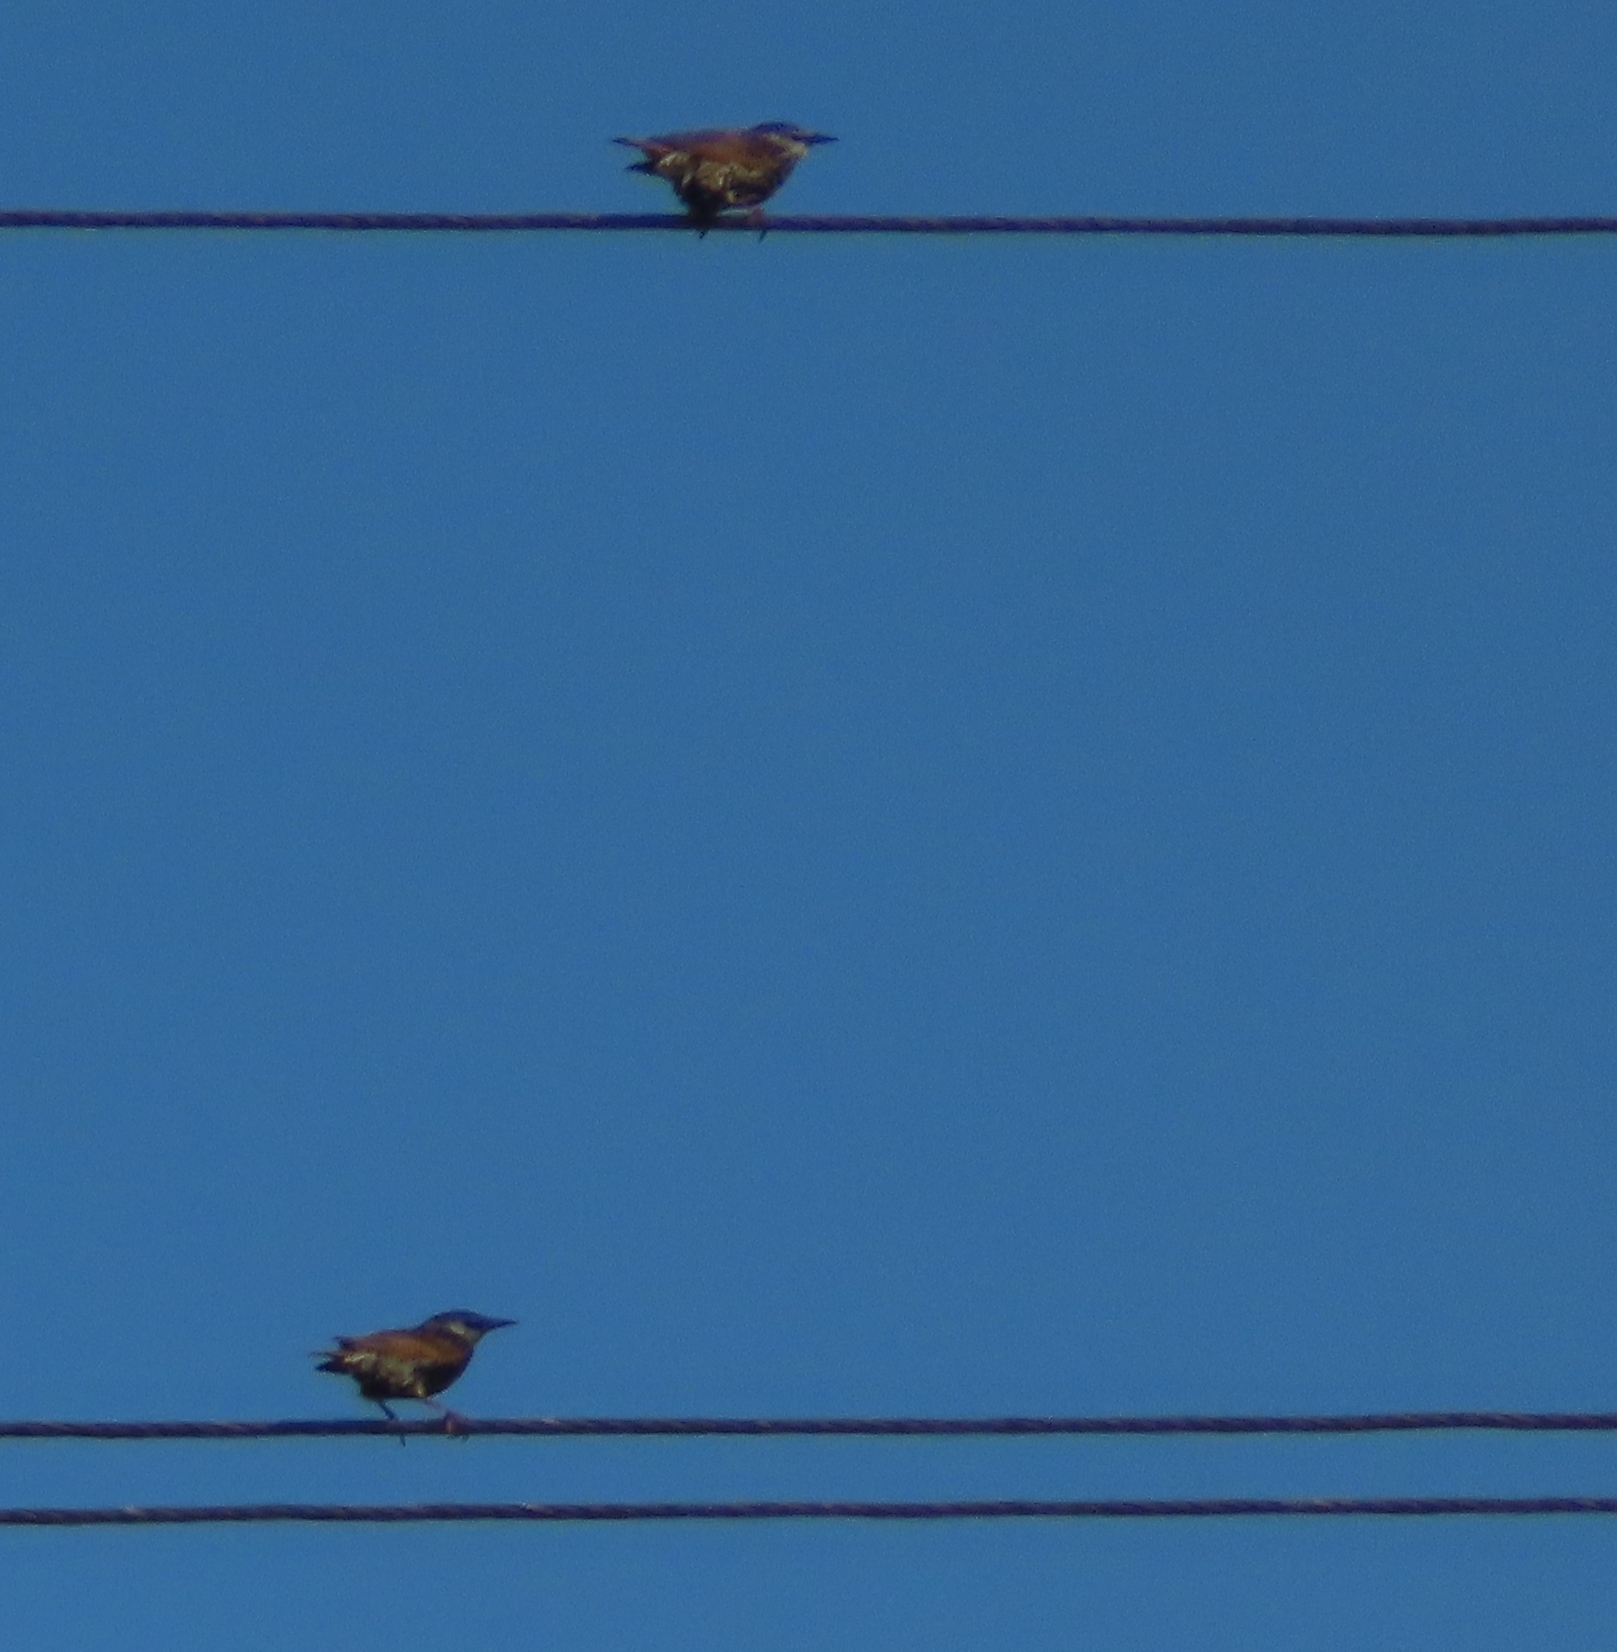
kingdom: Animalia
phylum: Chordata
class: Aves
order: Passeriformes
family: Sturnidae
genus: Sturnus
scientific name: Sturnus vulgaris
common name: Common starling
